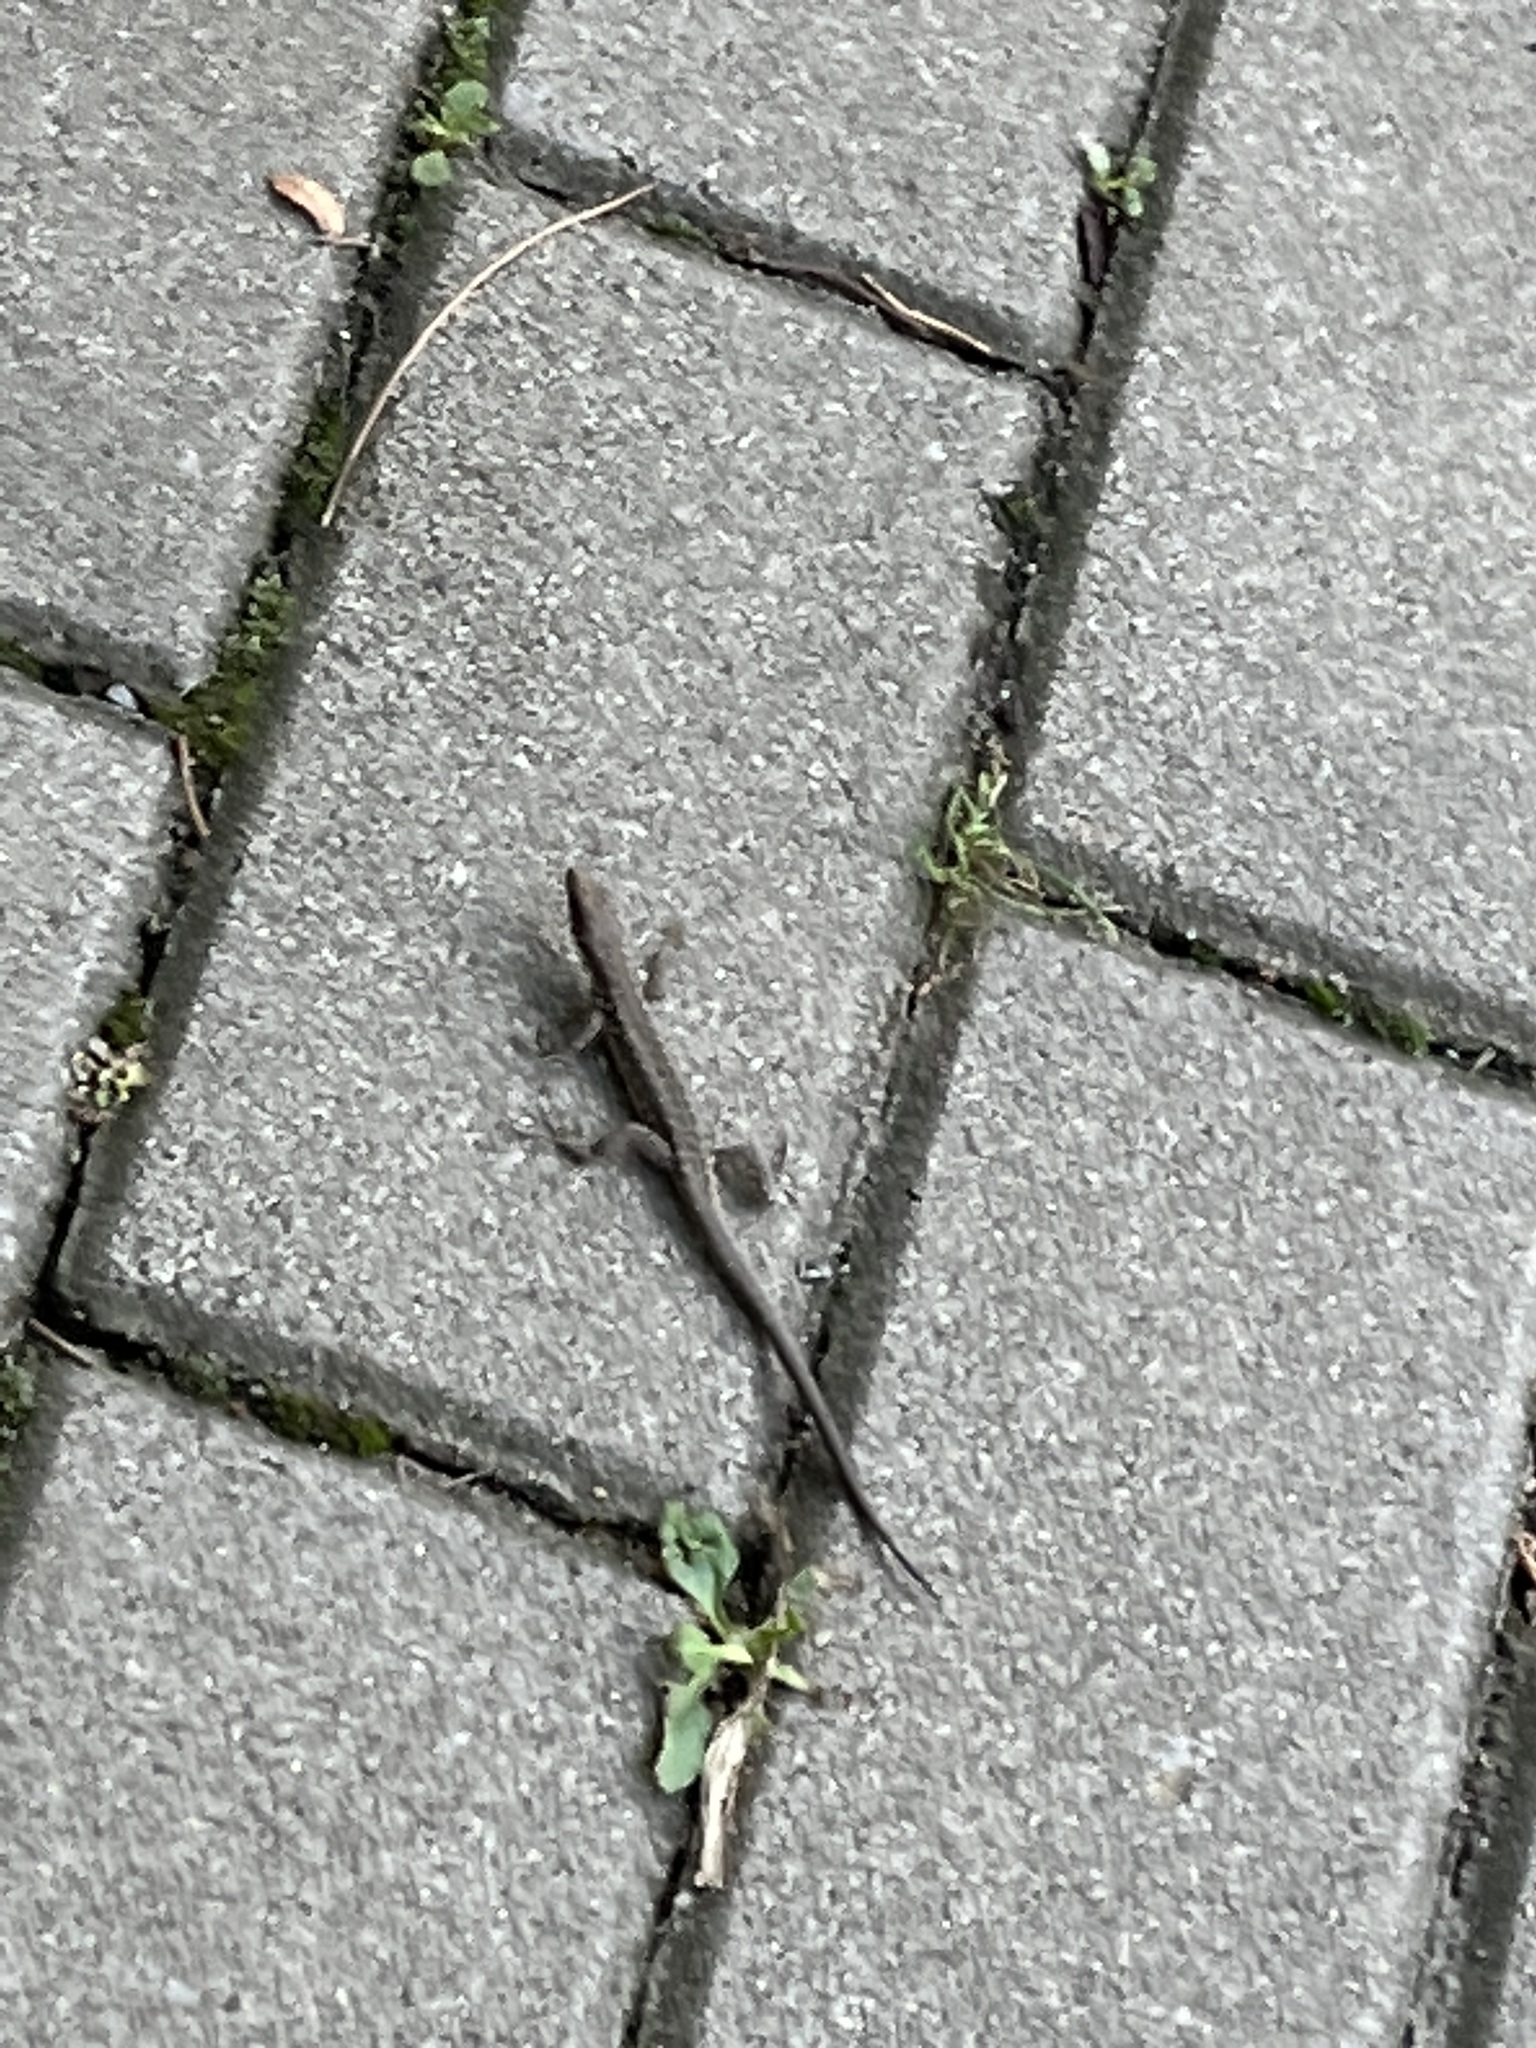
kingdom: Animalia
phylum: Chordata
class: Squamata
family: Lacertidae
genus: Darevskia
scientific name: Darevskia rudis
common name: Spiny-tailed lizard
